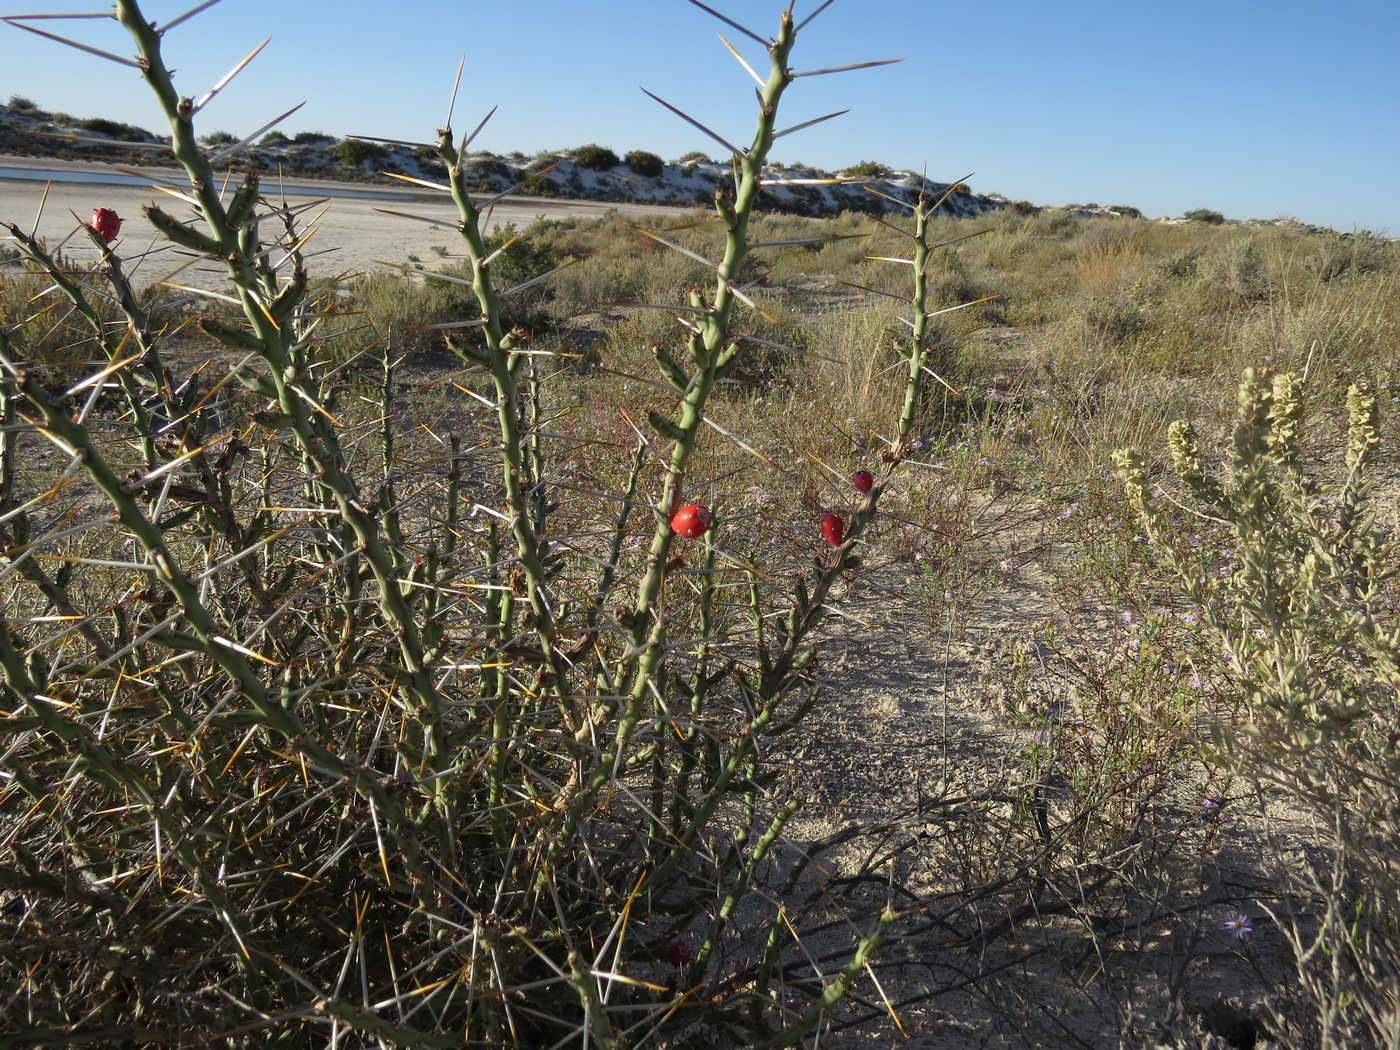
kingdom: Plantae
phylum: Tracheophyta
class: Magnoliopsida
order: Caryophyllales
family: Cactaceae
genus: Cylindropuntia
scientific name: Cylindropuntia leptocaulis
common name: Christmas cactus
